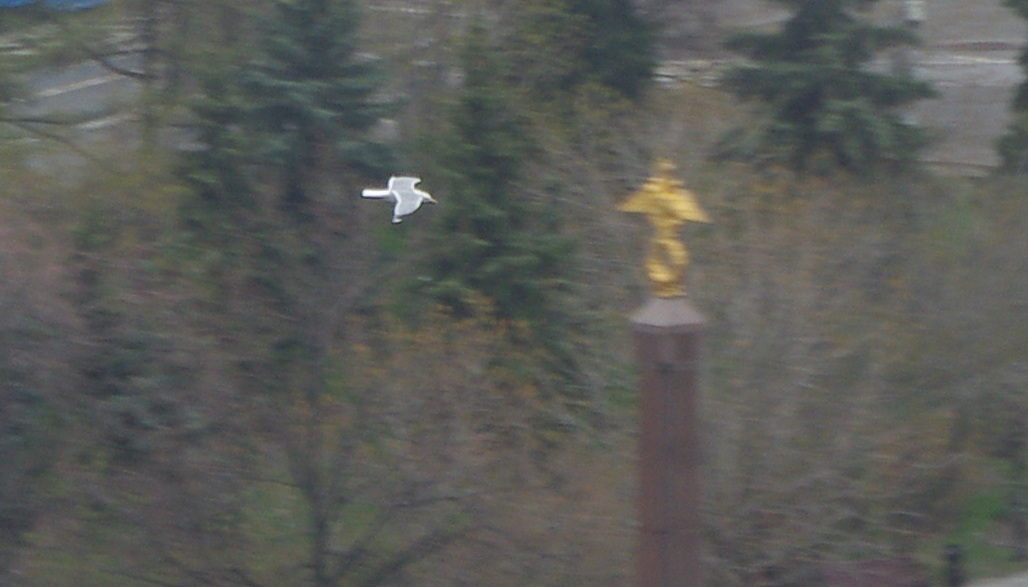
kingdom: Animalia
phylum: Chordata
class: Aves
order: Charadriiformes
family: Laridae
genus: Larus
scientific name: Larus canus
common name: Mew gull
